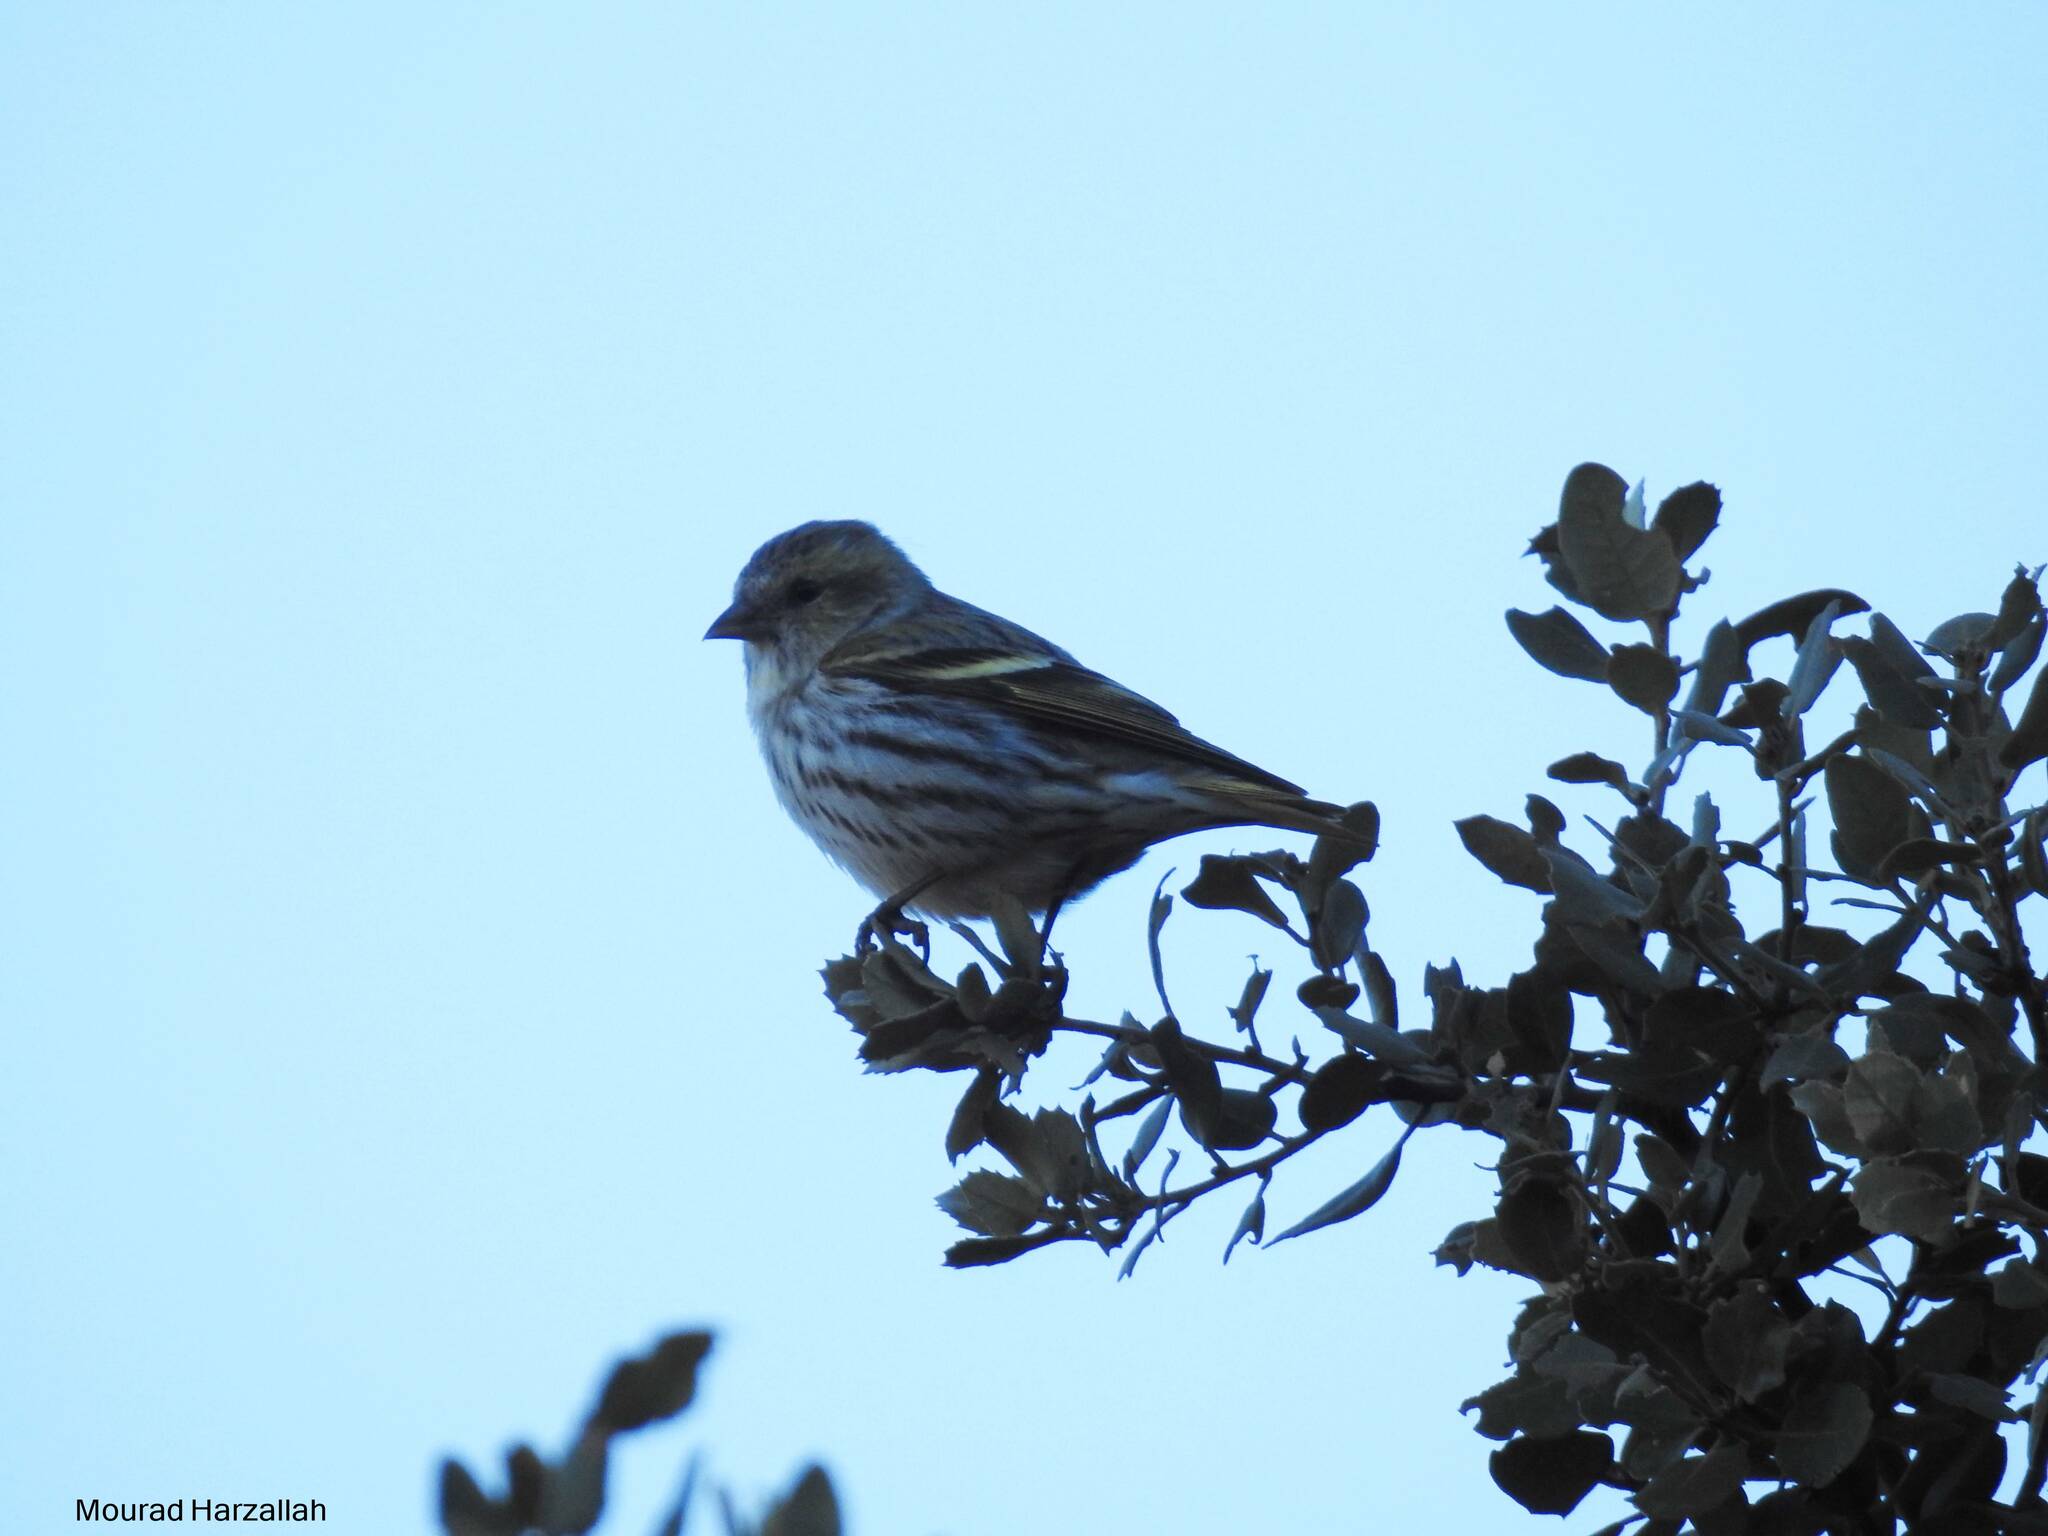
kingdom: Animalia
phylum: Chordata
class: Aves
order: Passeriformes
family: Fringillidae
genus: Spinus
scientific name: Spinus spinus
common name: Eurasian siskin
